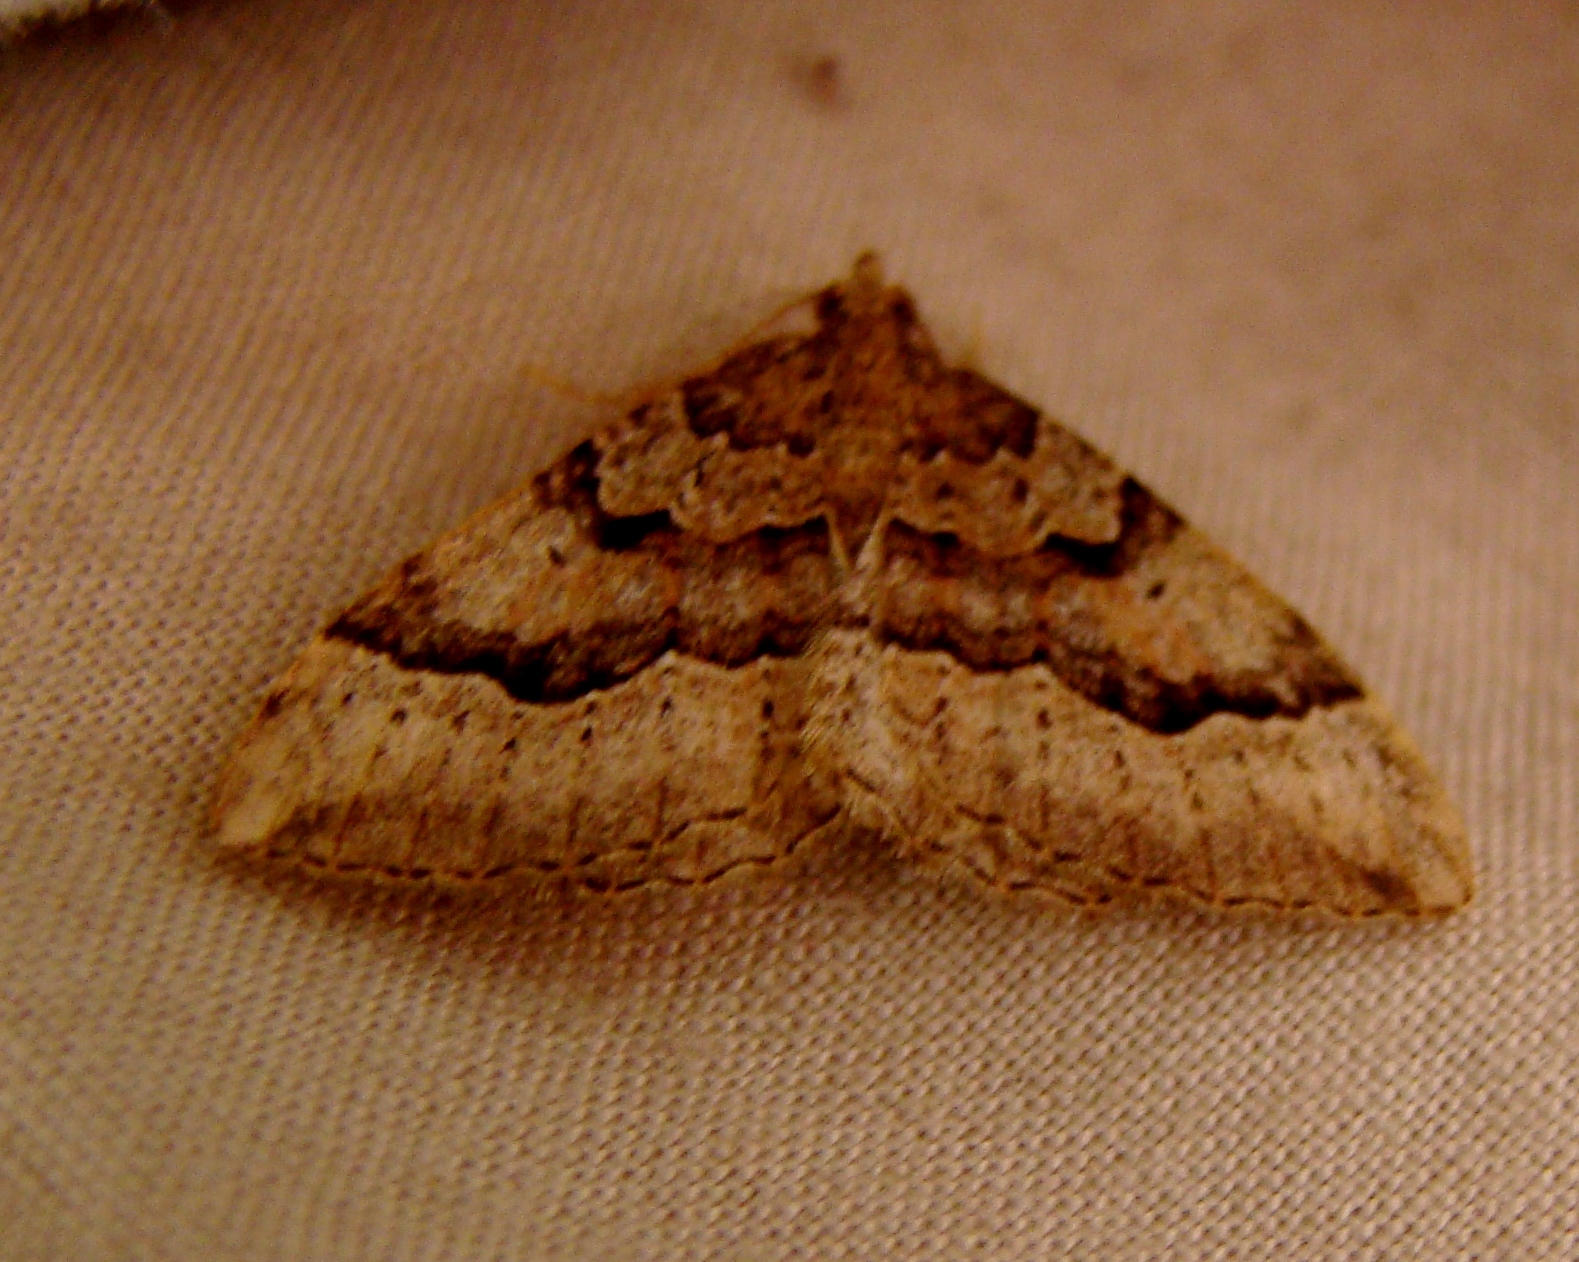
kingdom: Animalia
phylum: Arthropoda
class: Insecta
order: Lepidoptera
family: Geometridae
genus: Epyaxa
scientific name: Epyaxa rosearia
